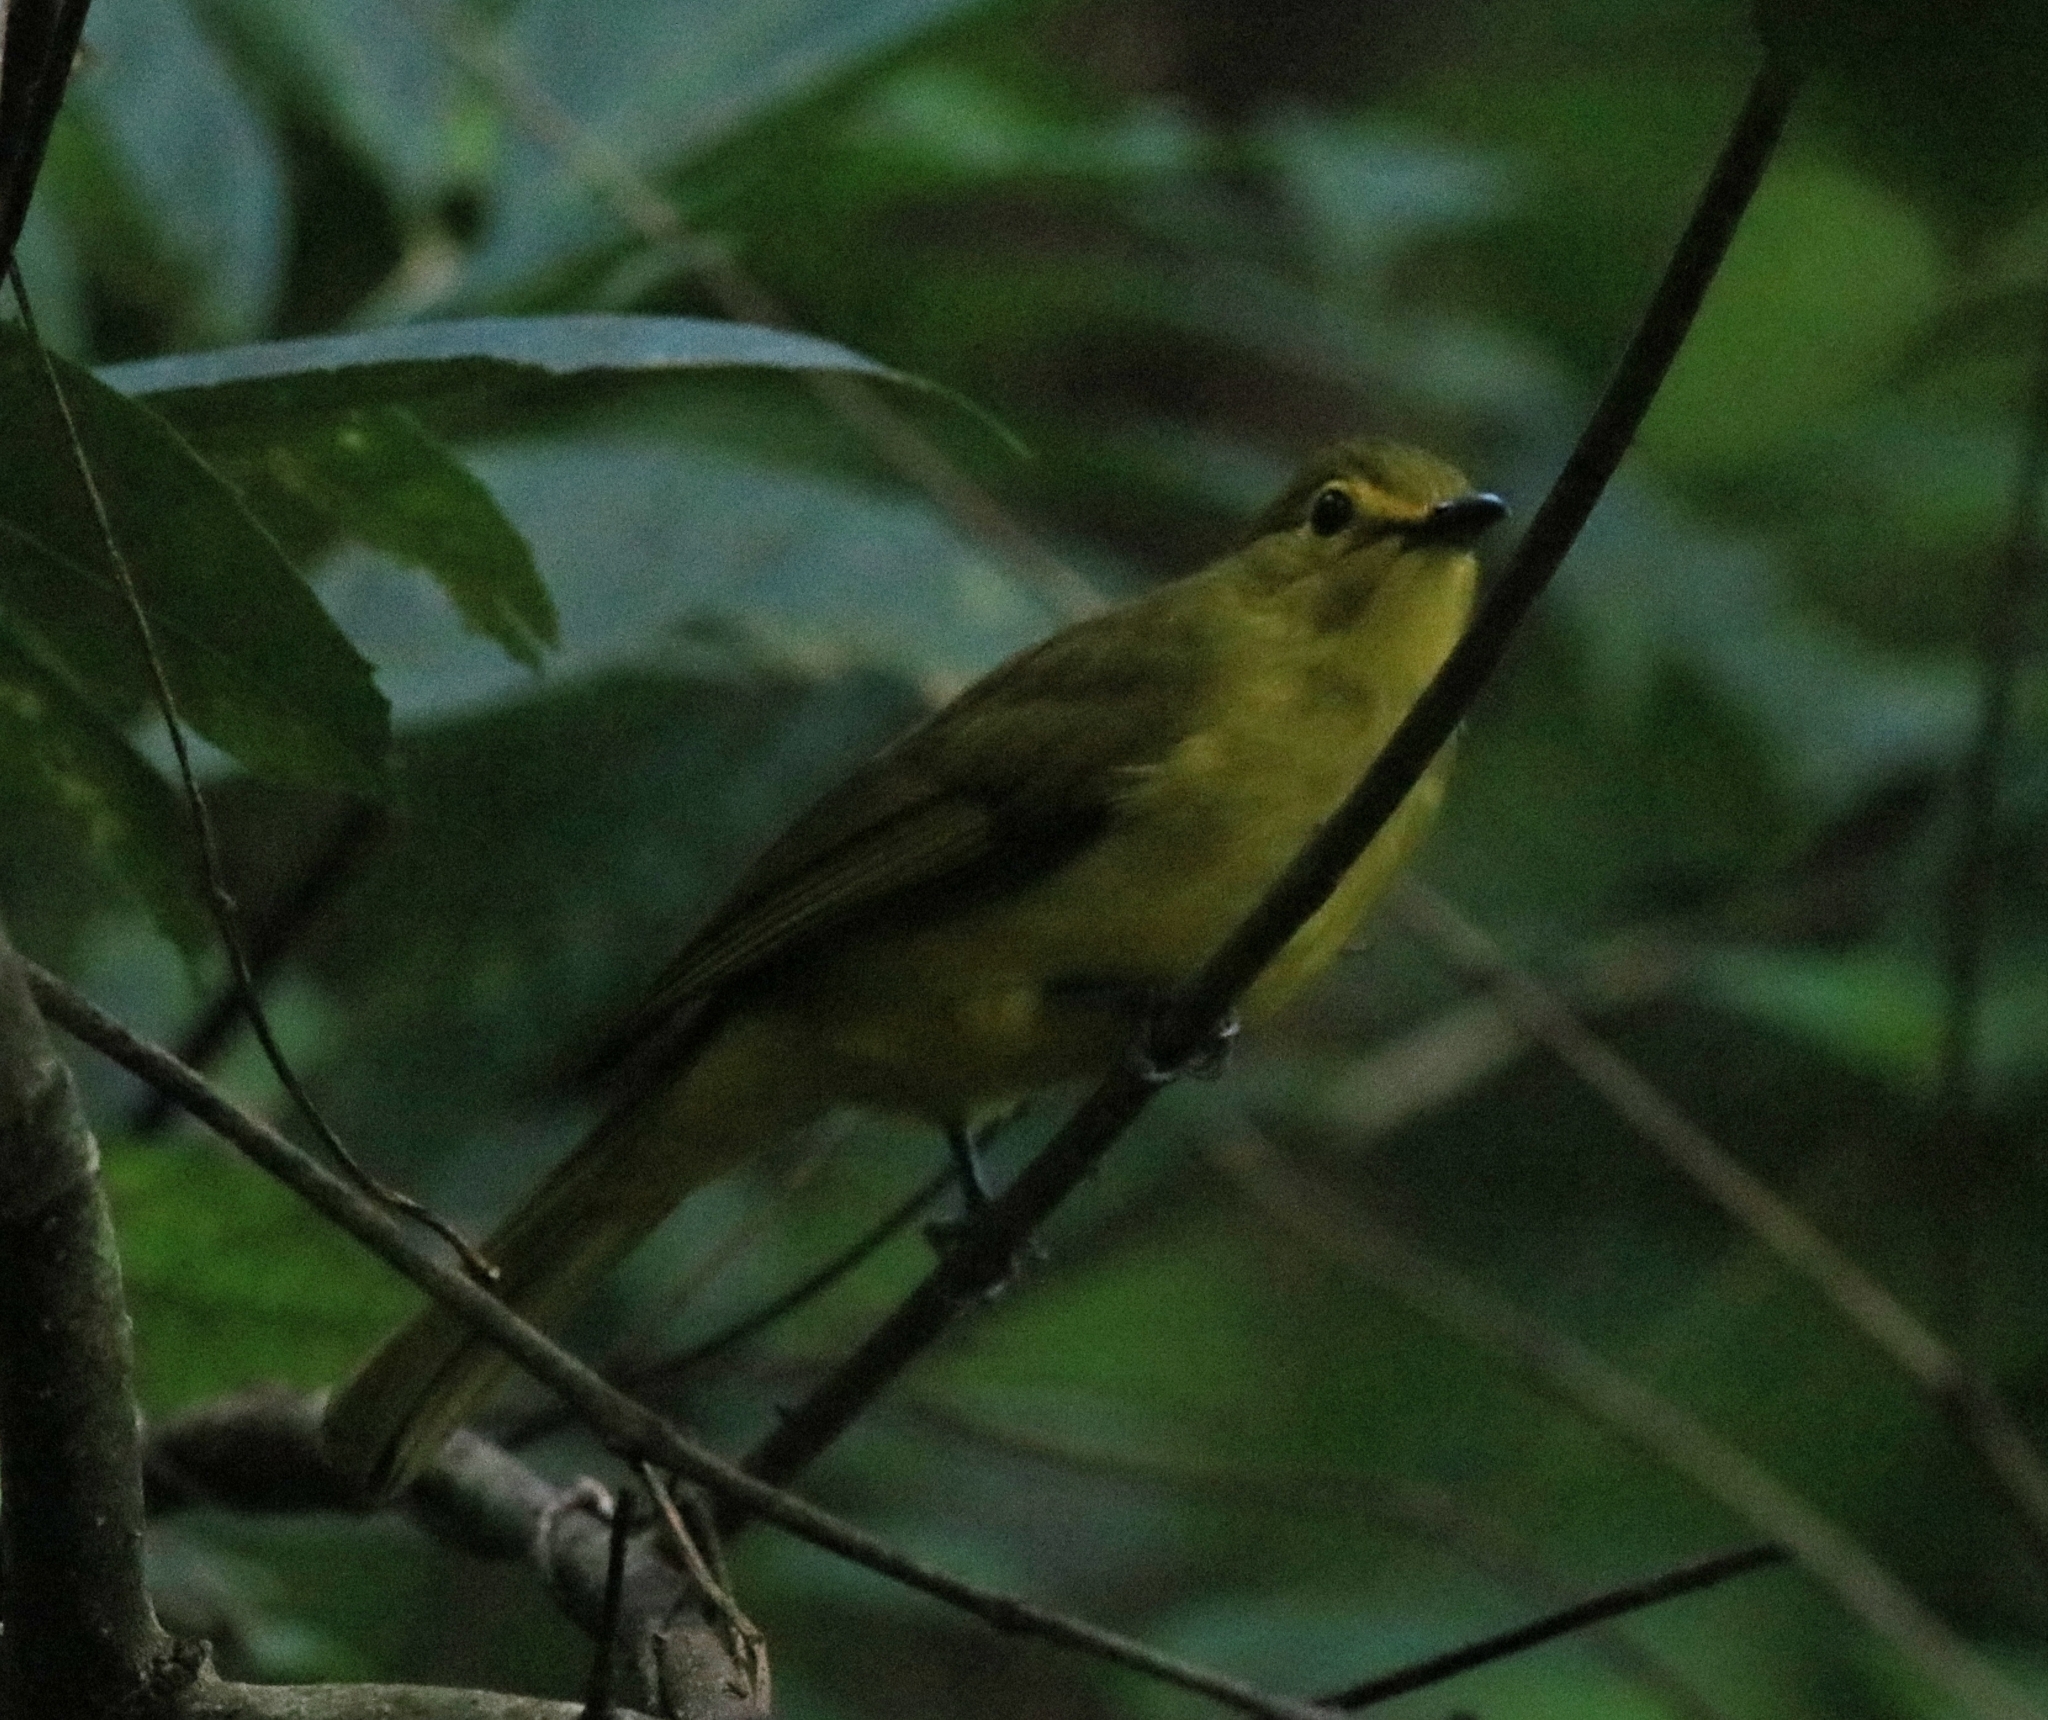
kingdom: Animalia
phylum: Chordata
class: Aves
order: Passeriformes
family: Pycnonotidae
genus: Acritillas
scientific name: Acritillas indica
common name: Yellow-browed bulbul
